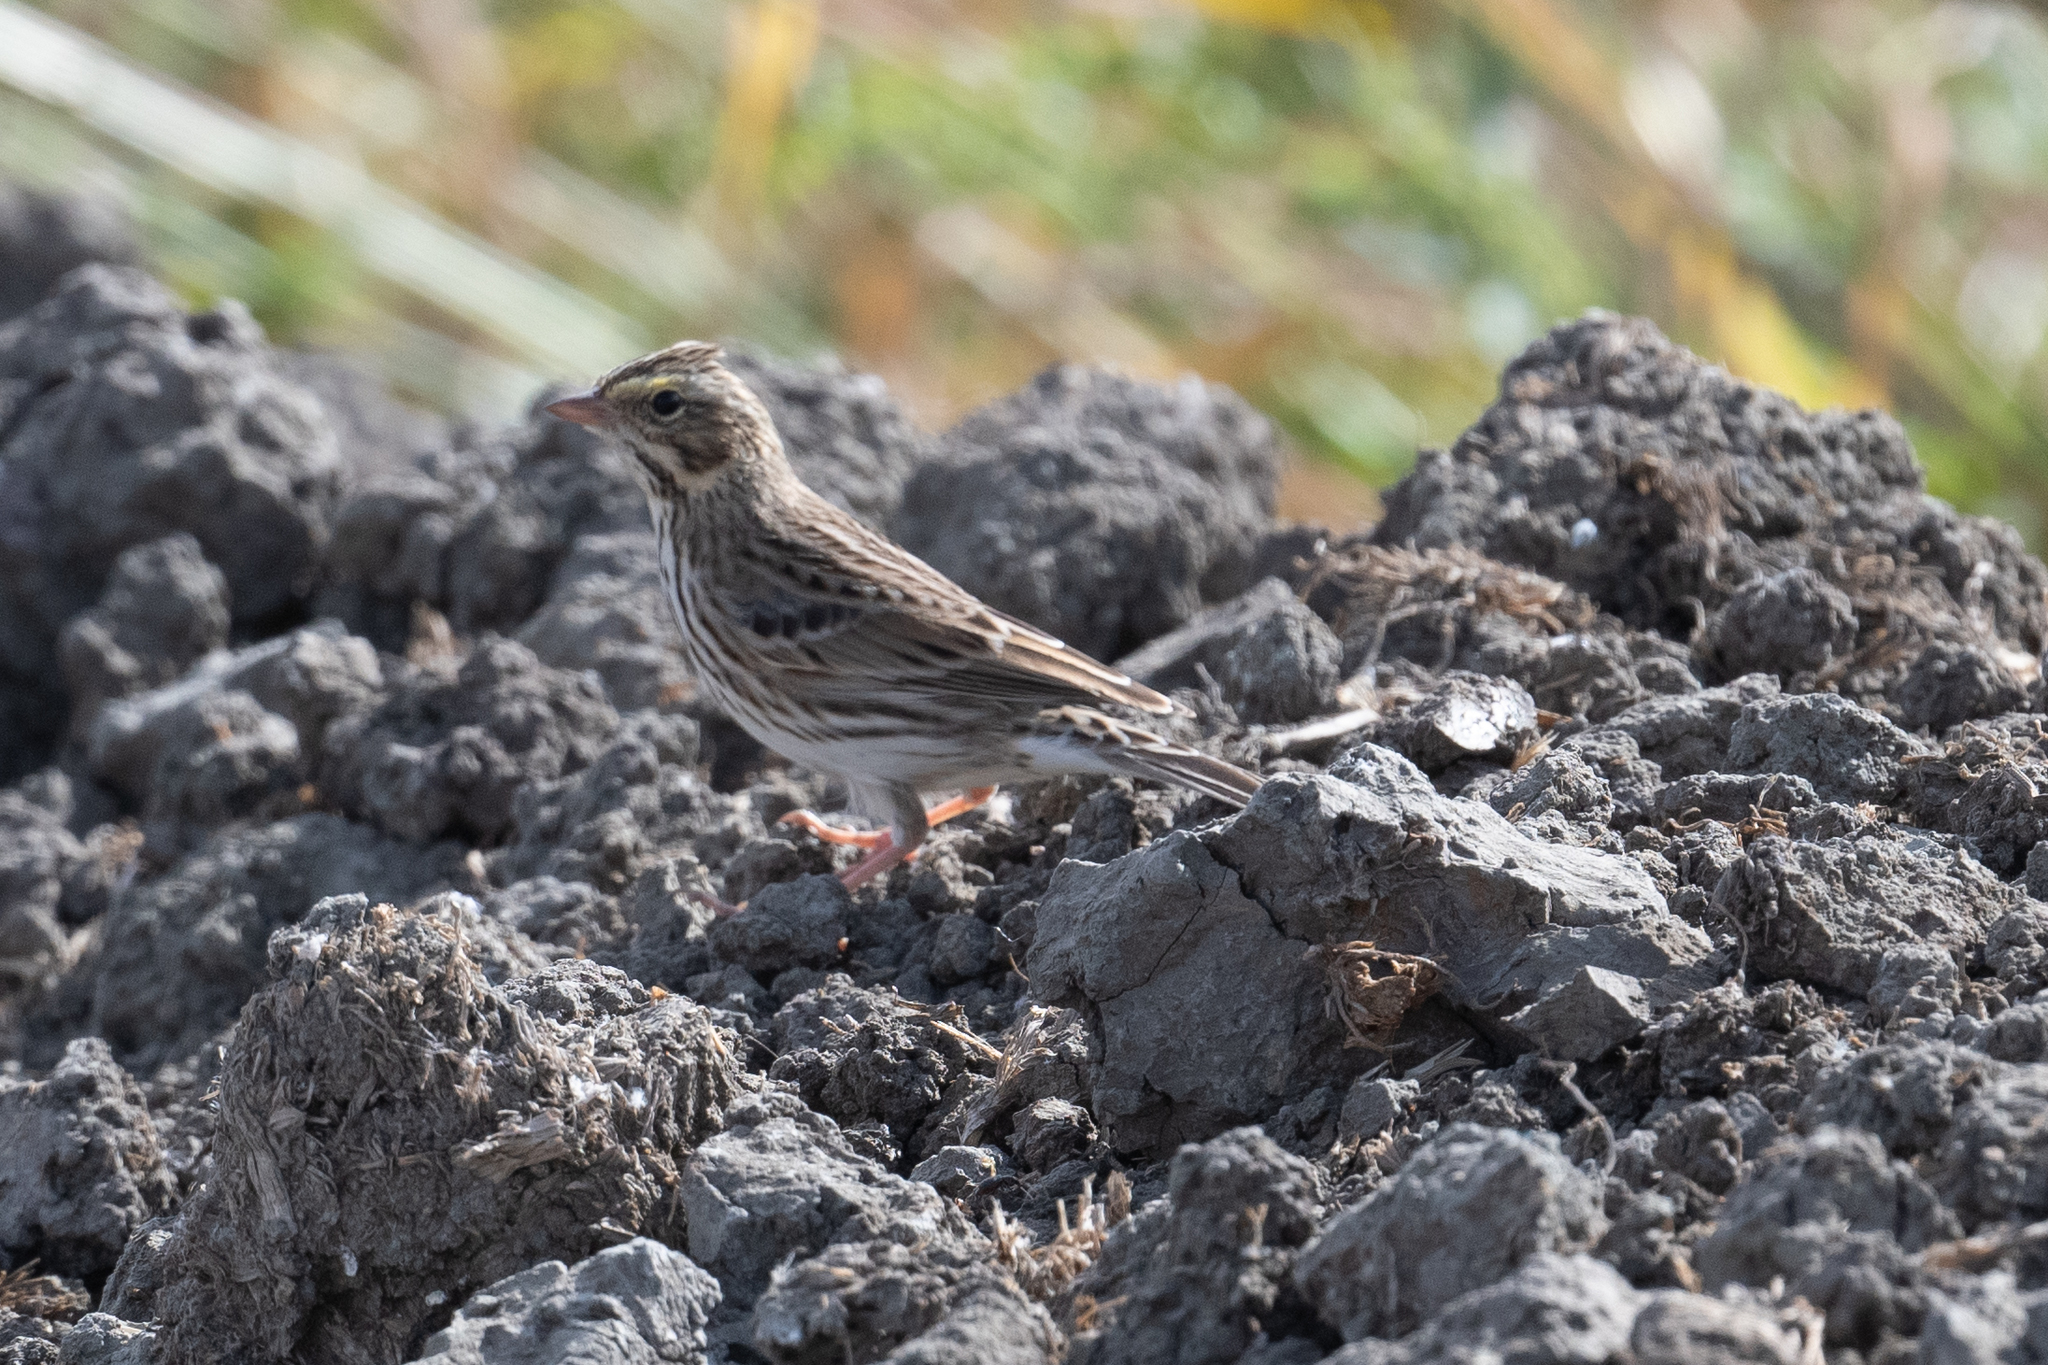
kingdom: Animalia
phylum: Chordata
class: Aves
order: Passeriformes
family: Passerellidae
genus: Passerculus
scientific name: Passerculus sandwichensis
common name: Savannah sparrow
